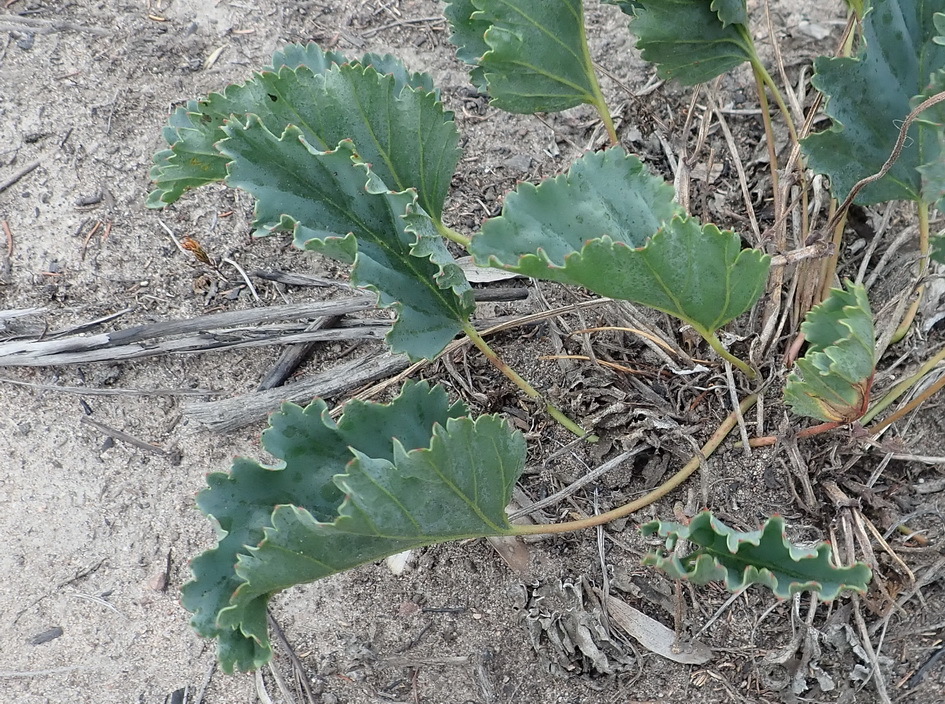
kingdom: Plantae
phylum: Tracheophyta
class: Magnoliopsida
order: Geraniales
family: Geraniaceae
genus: Pelargonium
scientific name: Pelargonium pulverulentum
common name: Powdered-leaf pelargonium
